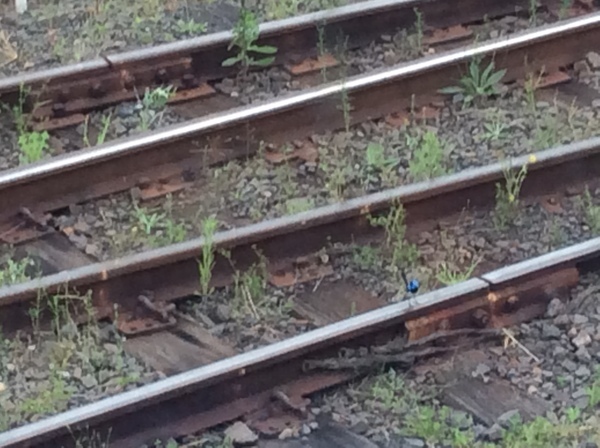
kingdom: Animalia
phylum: Chordata
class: Aves
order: Passeriformes
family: Maluridae
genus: Malurus
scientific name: Malurus cyaneus
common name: Superb fairywren
